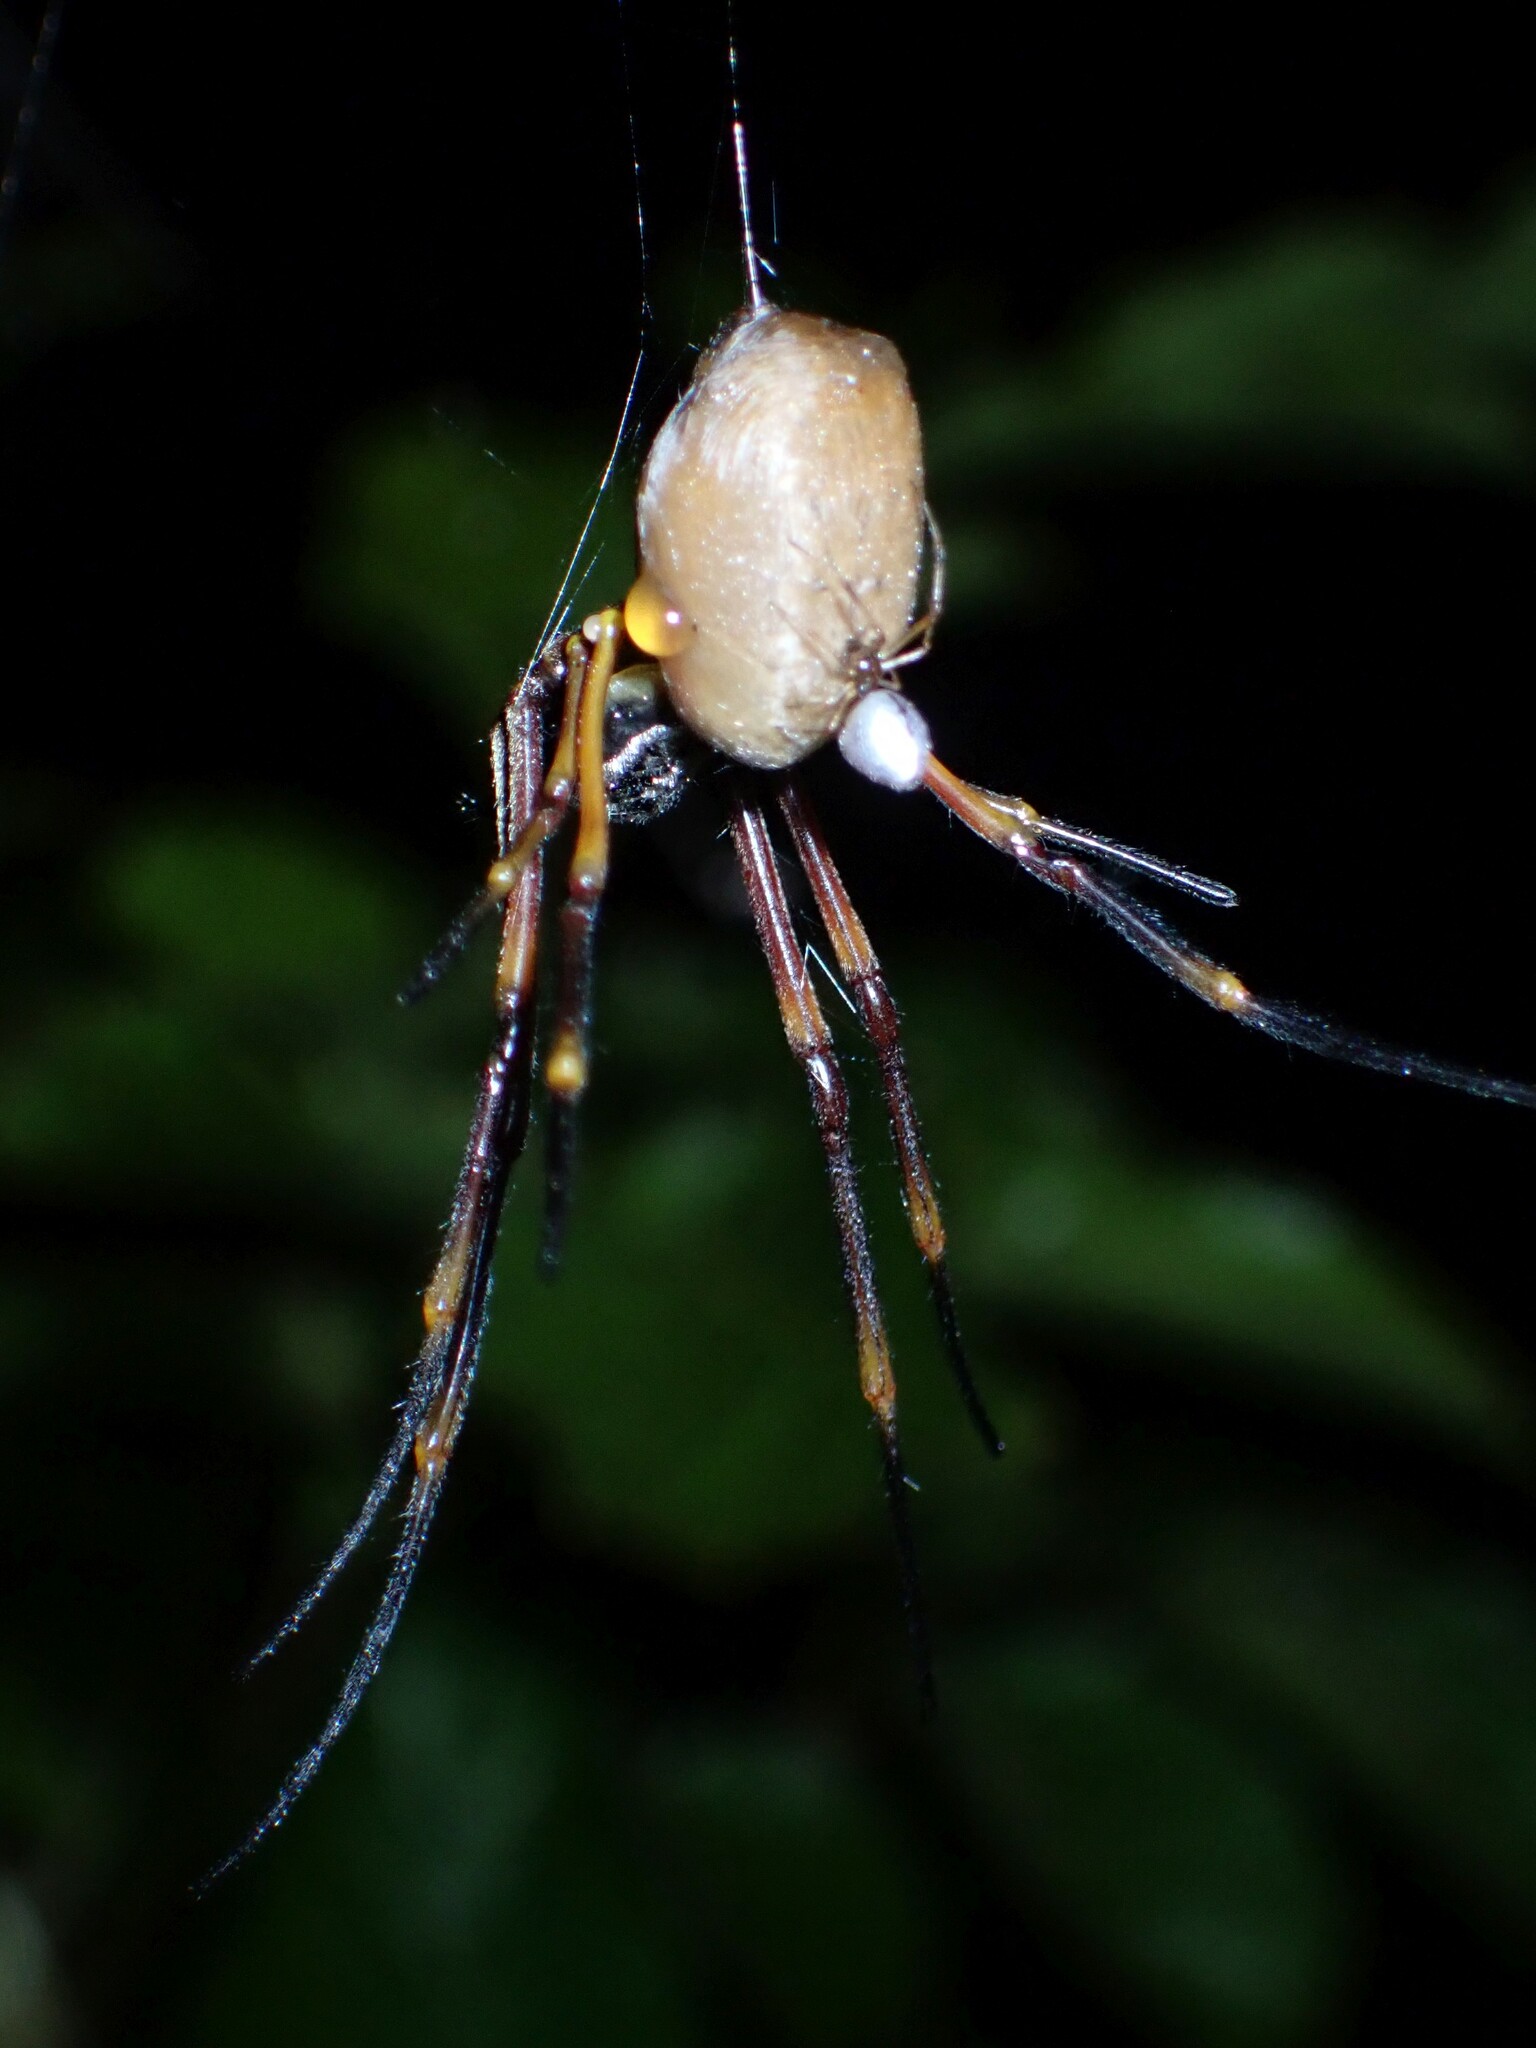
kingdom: Animalia
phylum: Arthropoda
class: Arachnida
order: Araneae
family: Araneidae
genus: Trichonephila
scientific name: Trichonephila plumipes
